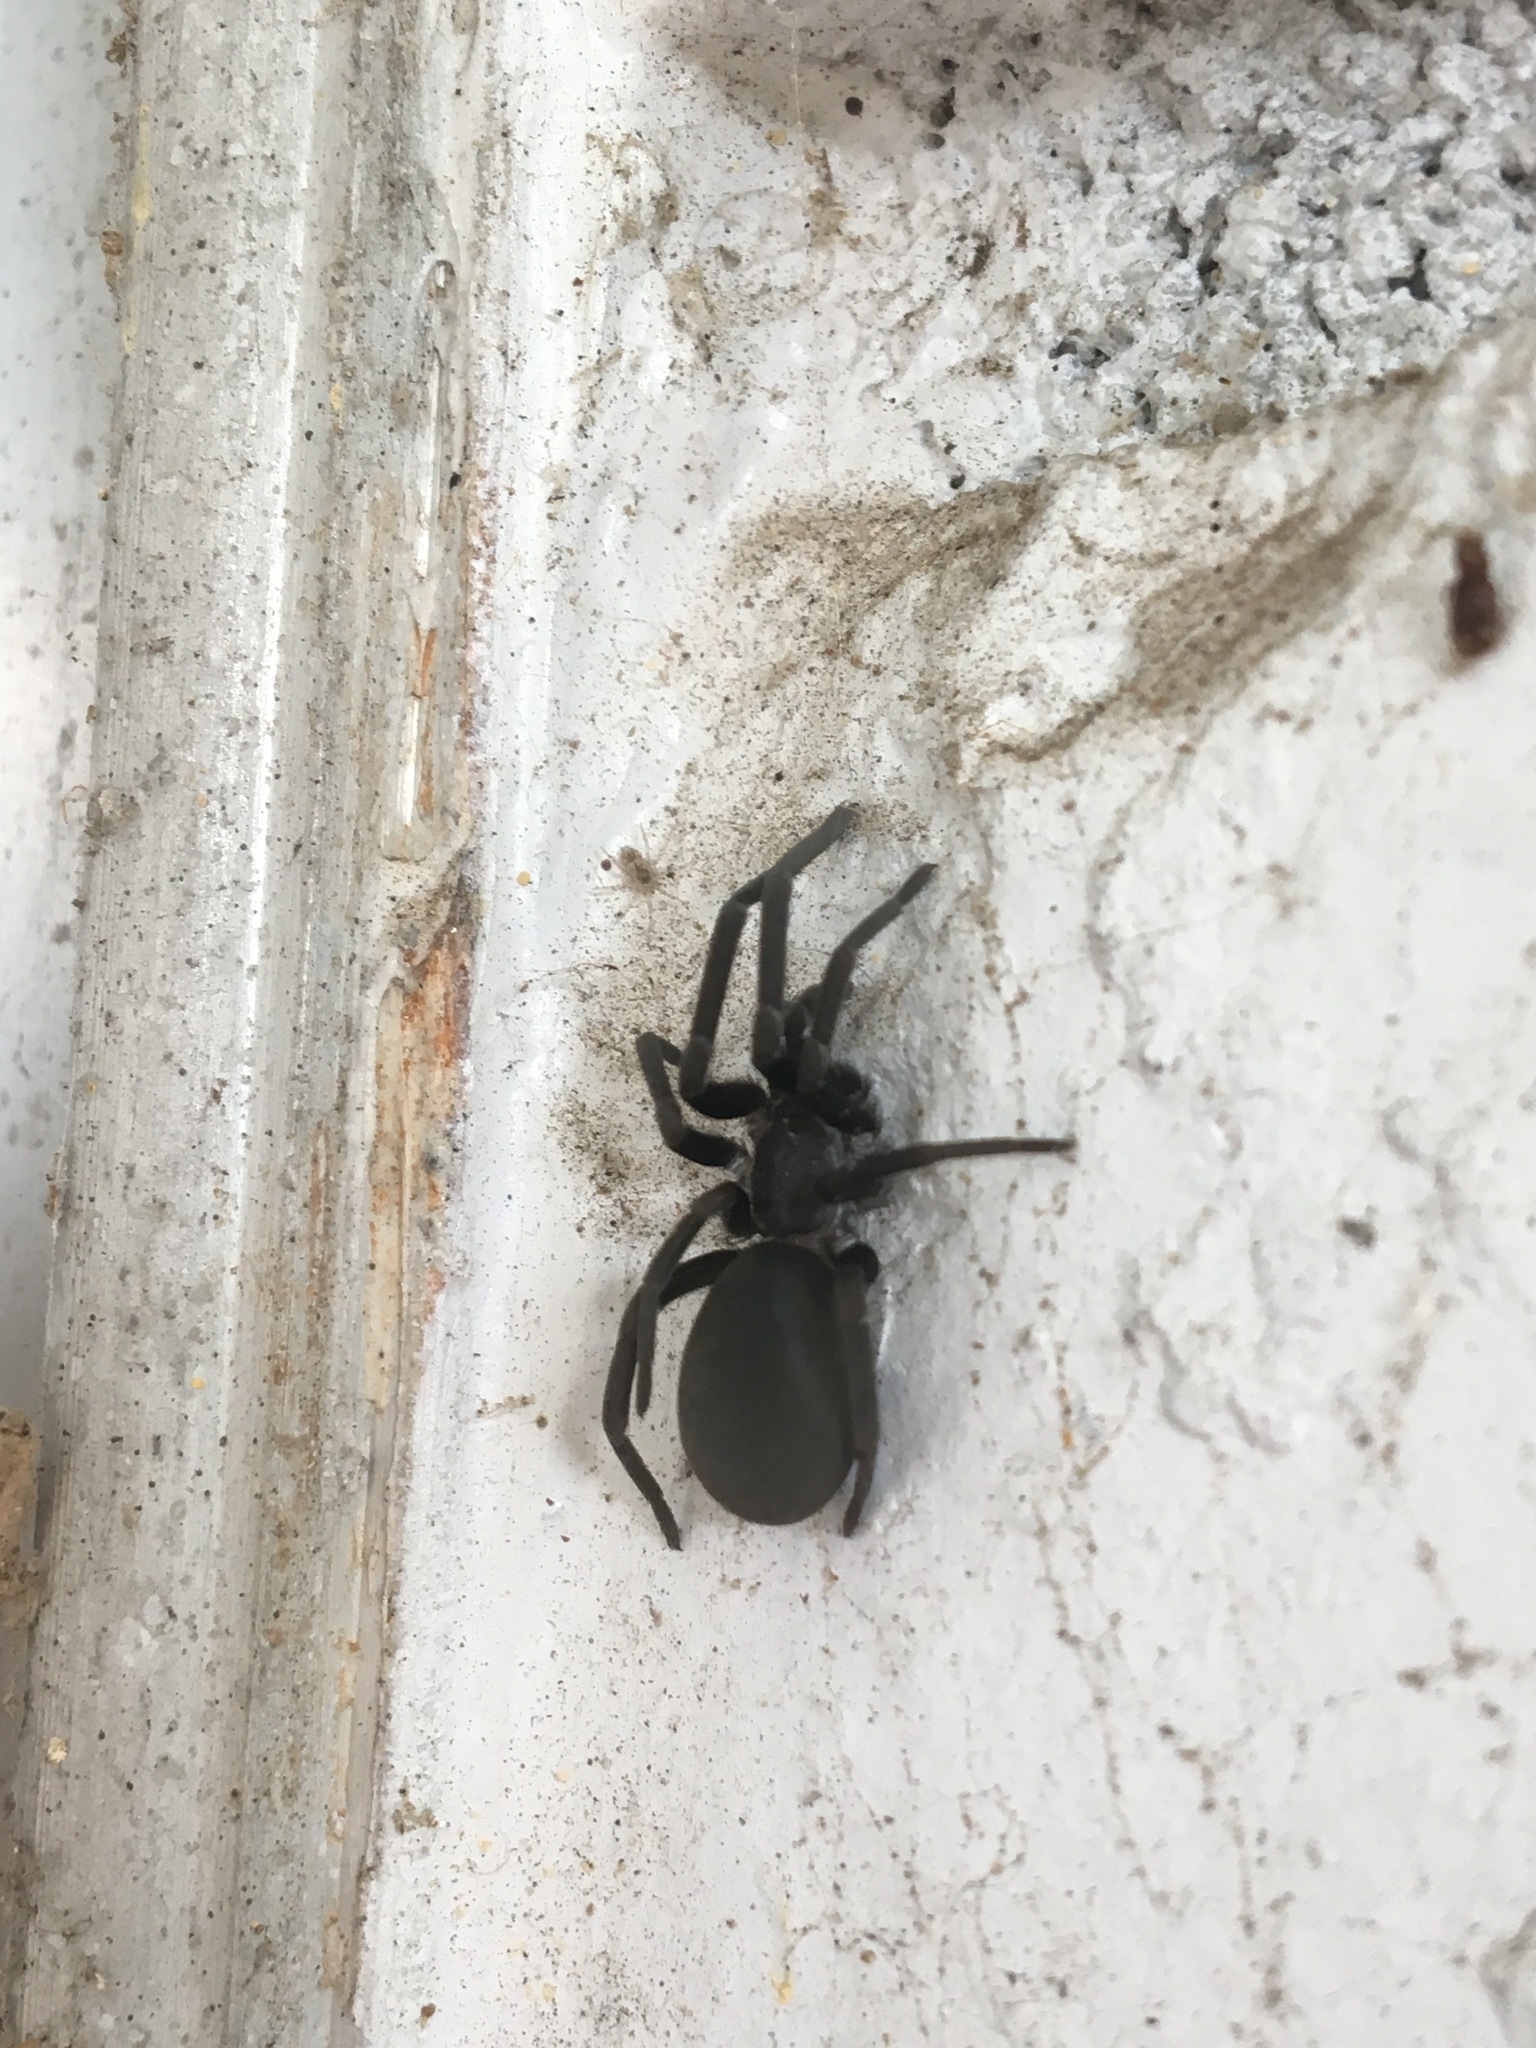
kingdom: Animalia
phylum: Arthropoda
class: Arachnida
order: Araneae
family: Filistatidae
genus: Kukulcania
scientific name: Kukulcania hibernalis
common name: Crevice weaver
